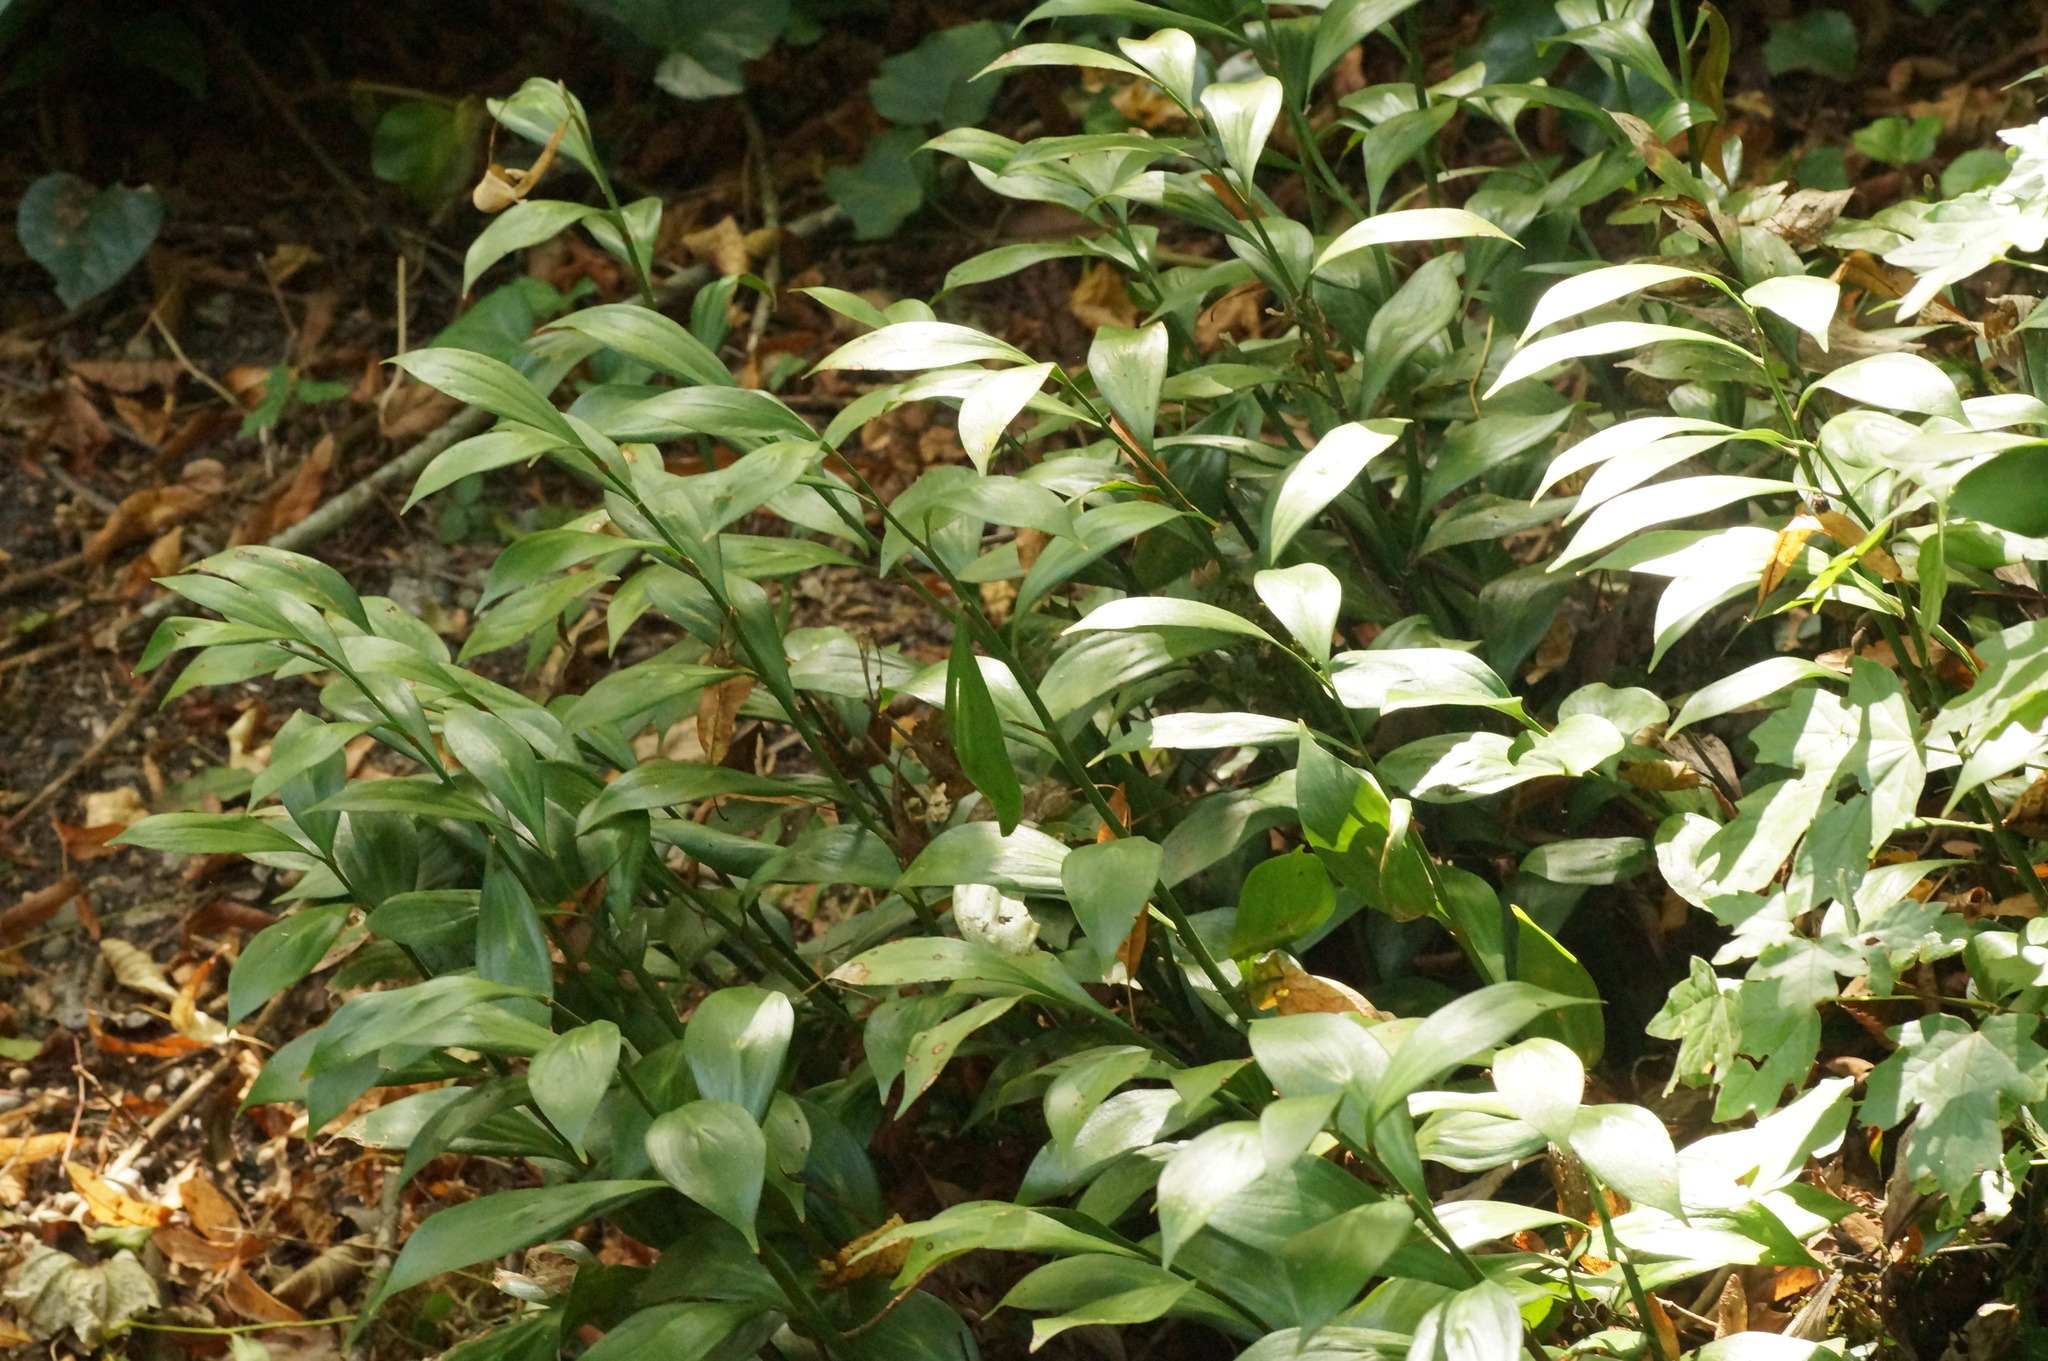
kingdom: Plantae
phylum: Tracheophyta
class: Liliopsida
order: Asparagales
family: Asparagaceae
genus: Ruscus
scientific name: Ruscus colchicus
